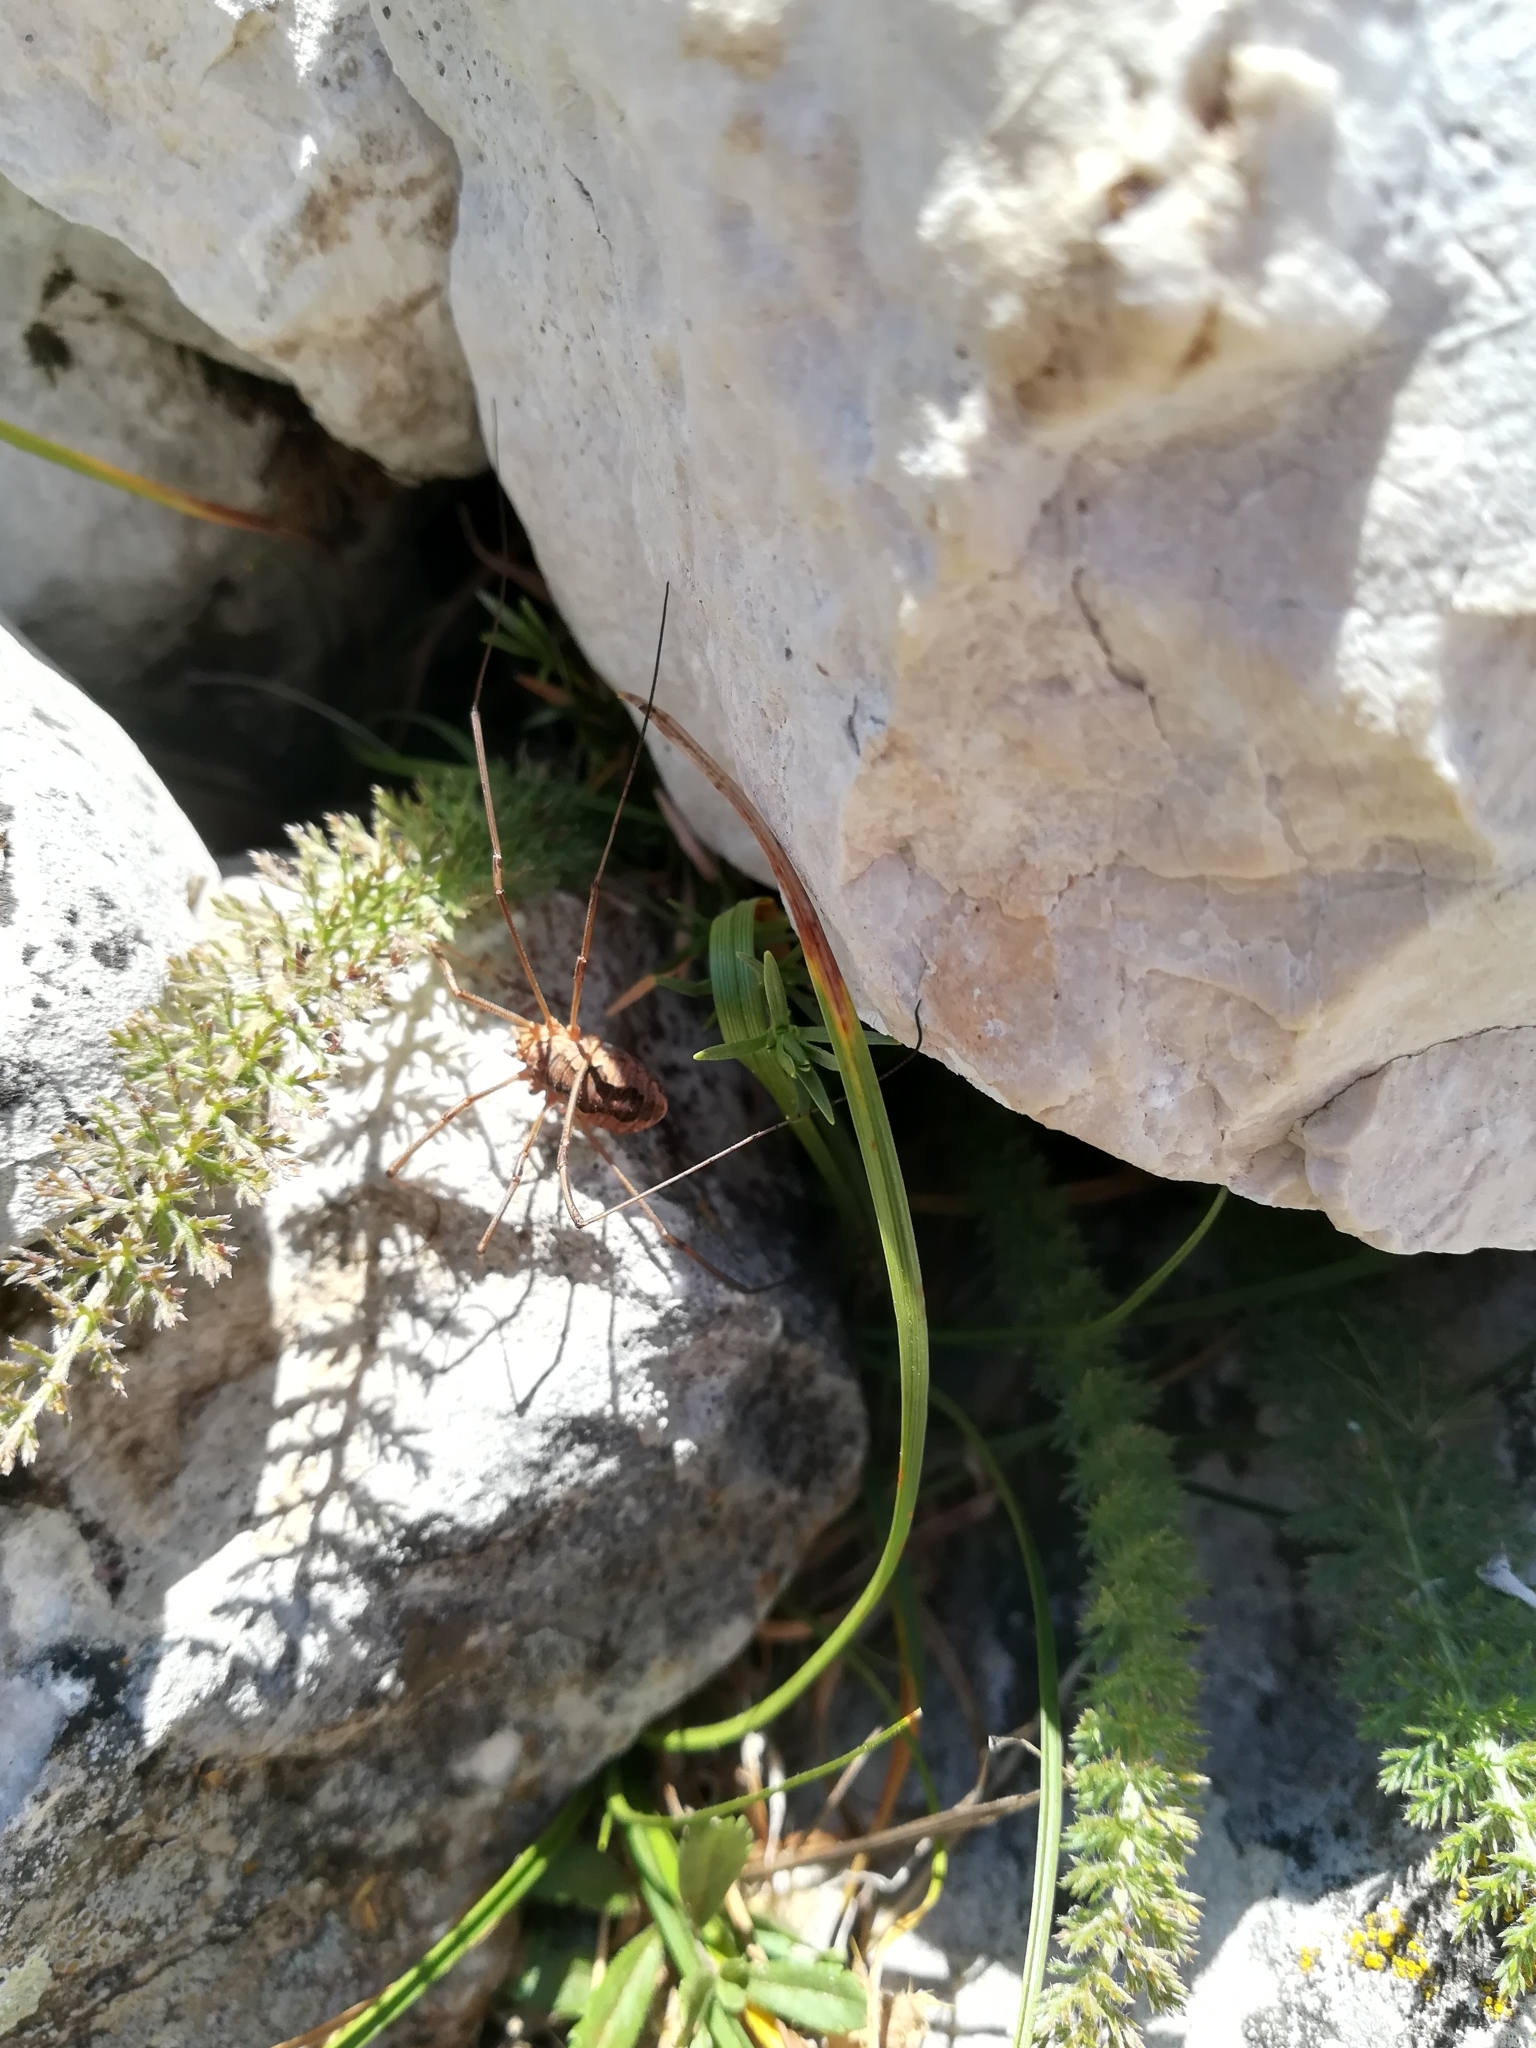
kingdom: Animalia
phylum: Arthropoda
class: Arachnida
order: Opiliones
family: Phalangiidae
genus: Phalangium
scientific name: Phalangium opilio
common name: Daddy longleg
